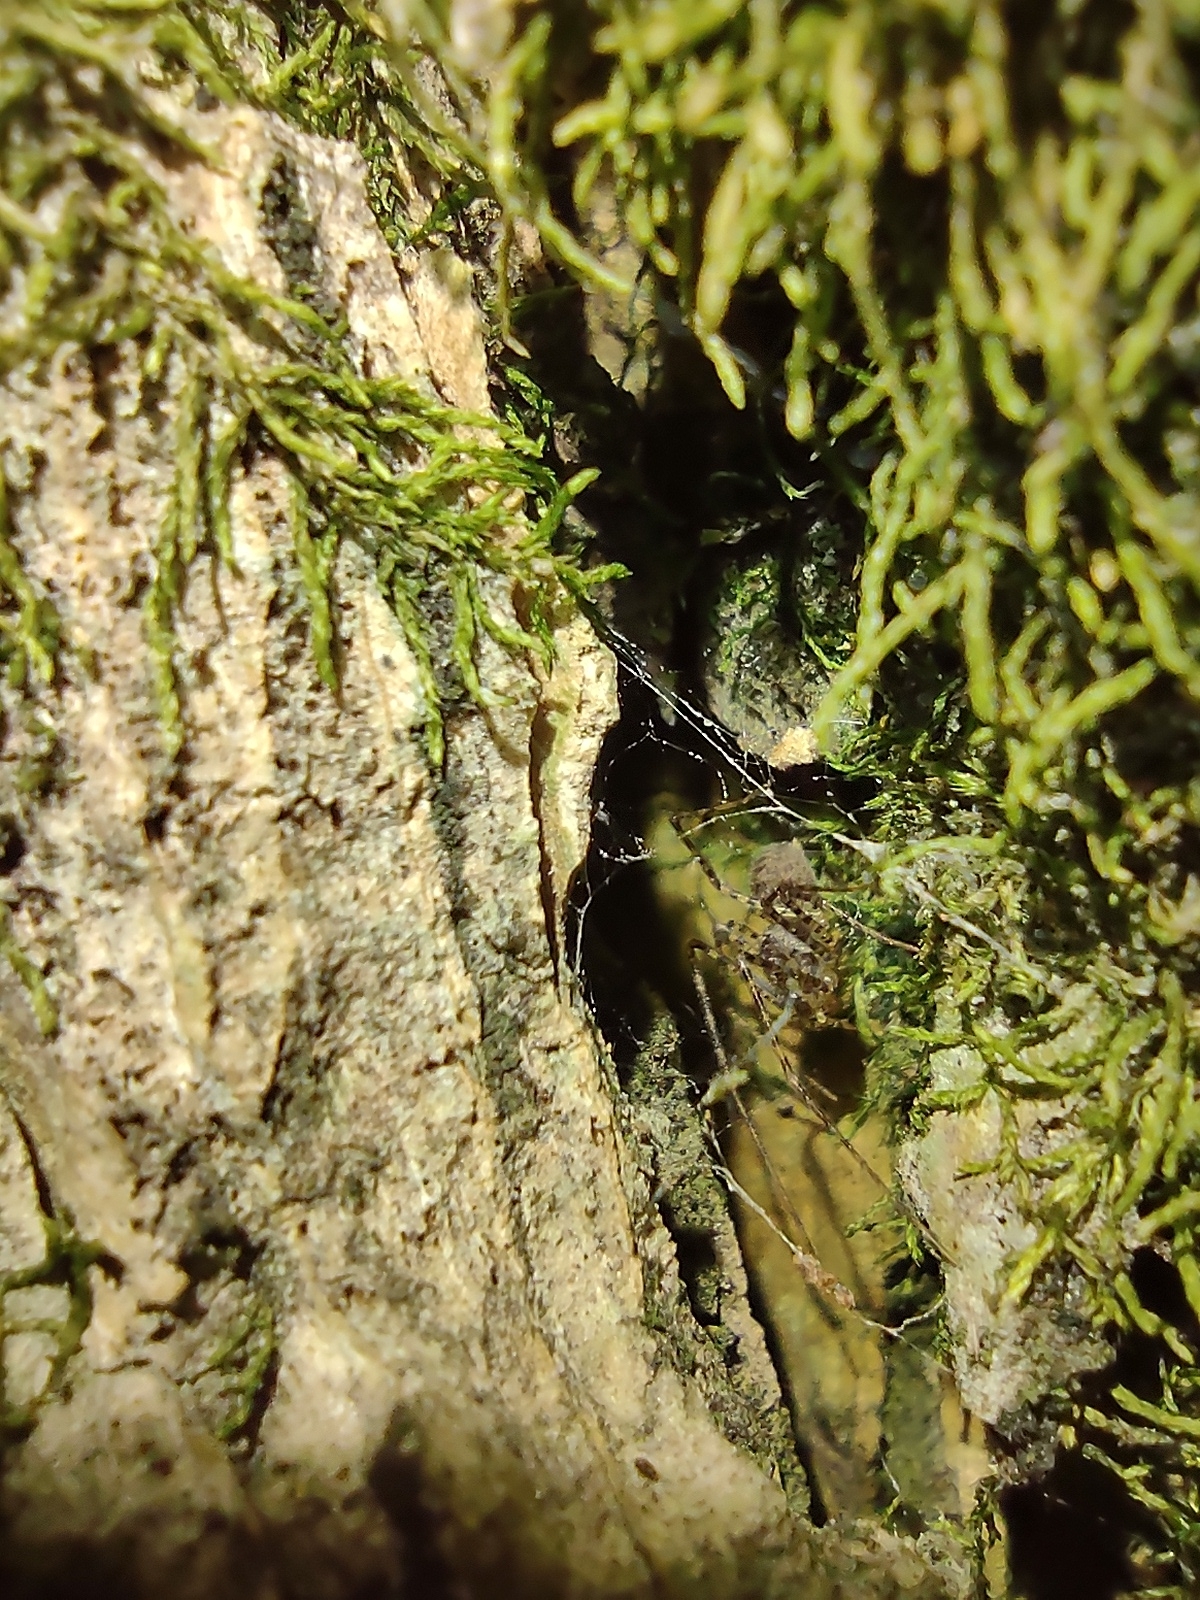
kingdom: Animalia
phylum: Arthropoda
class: Arachnida
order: Araneae
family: Scytodidae
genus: Scytodes
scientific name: Scytodes globula
